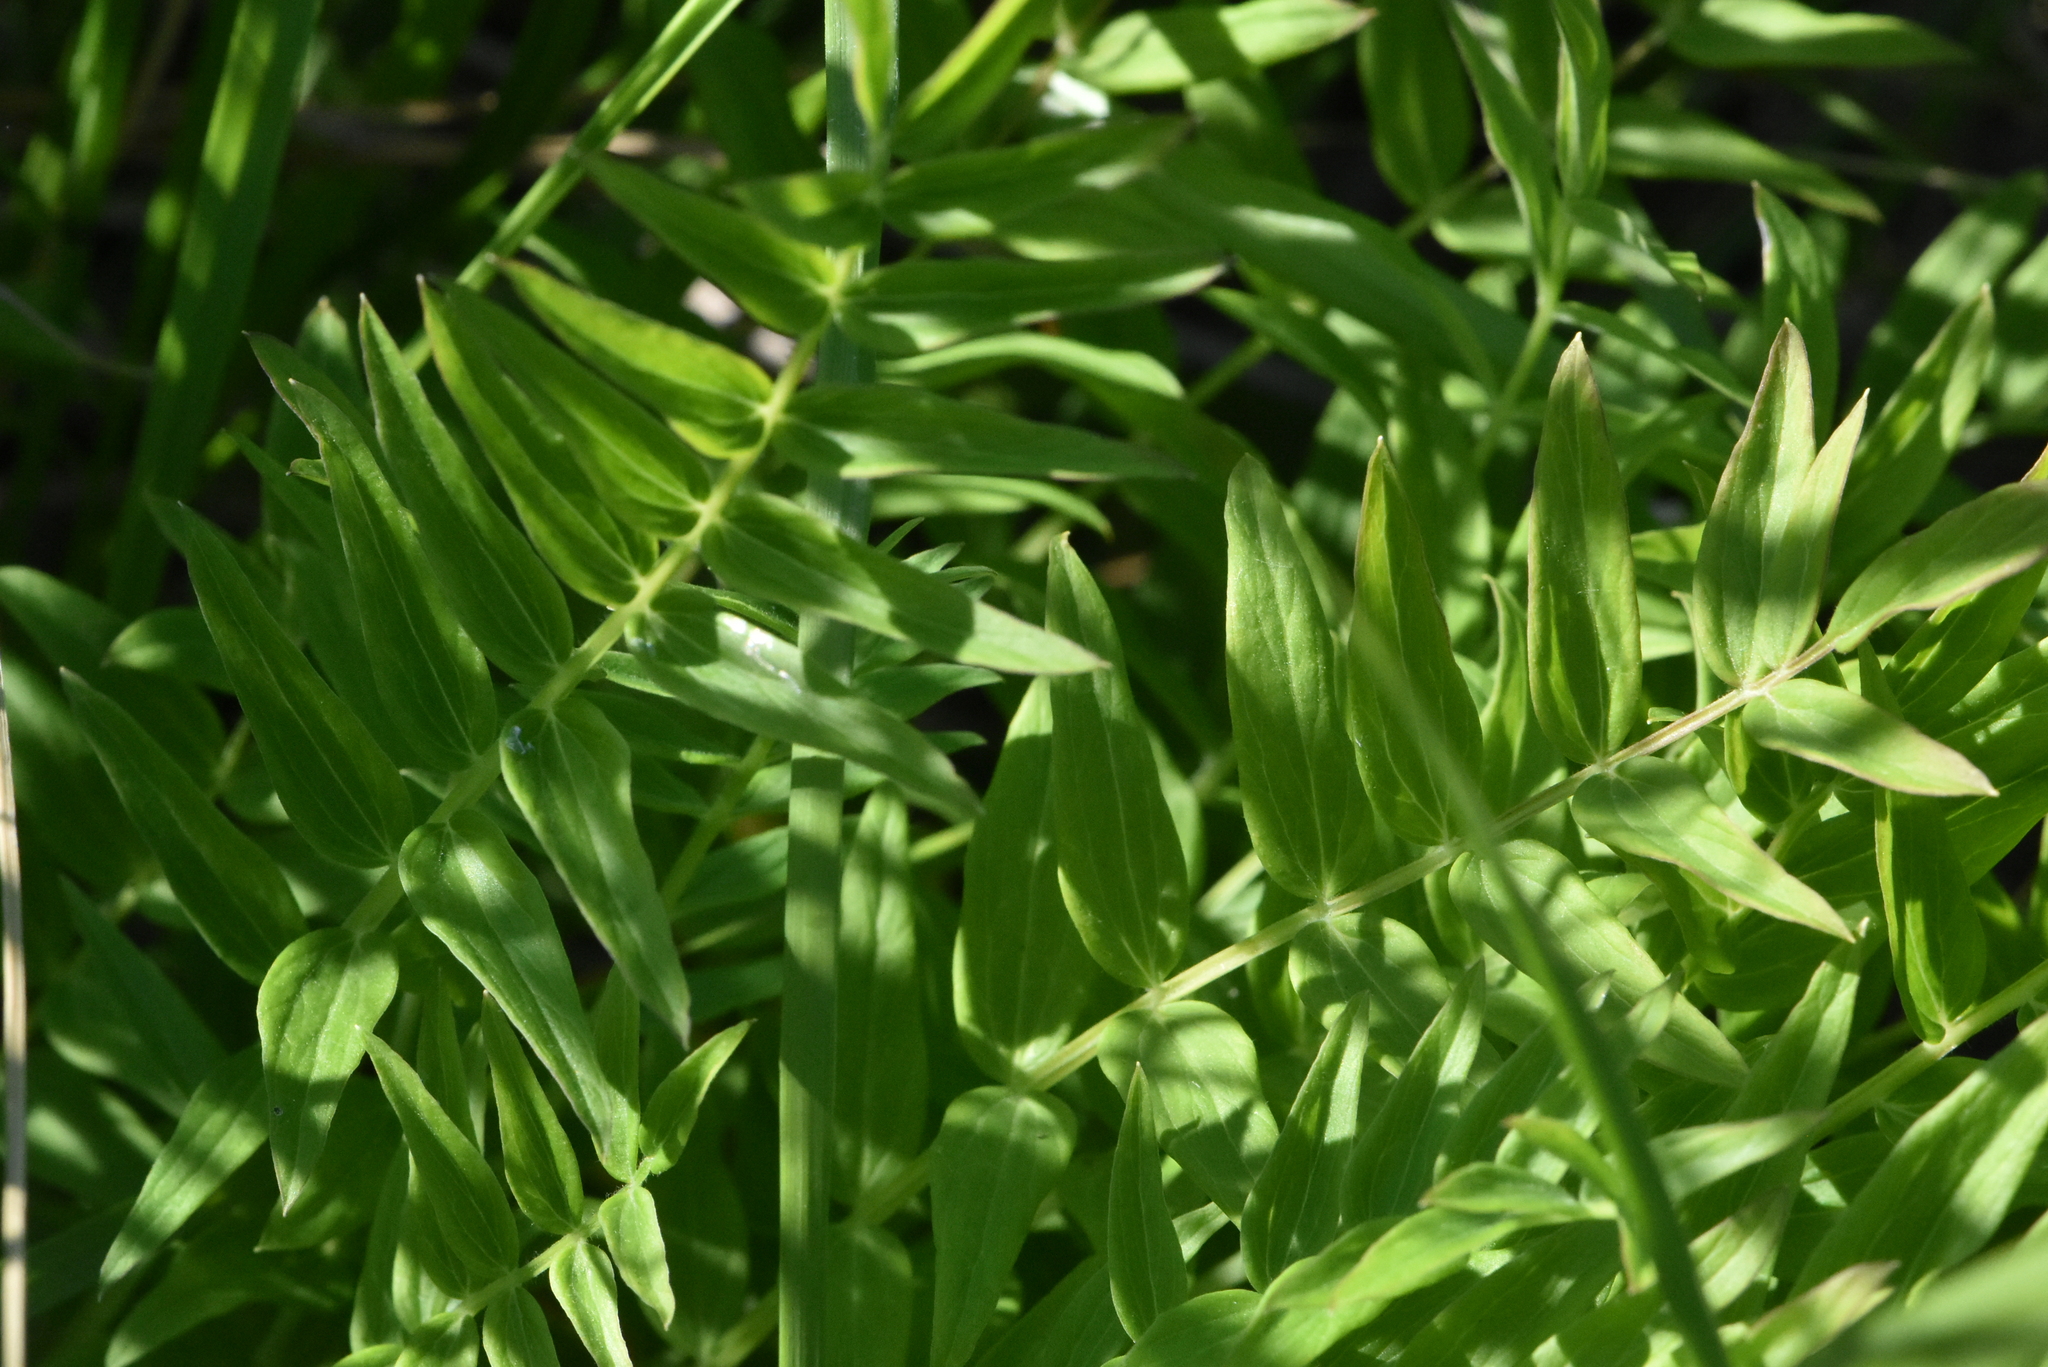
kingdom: Plantae
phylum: Tracheophyta
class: Magnoliopsida
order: Ericales
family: Polemoniaceae
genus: Polemonium
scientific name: Polemonium caeruleum
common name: Jacob's-ladder
